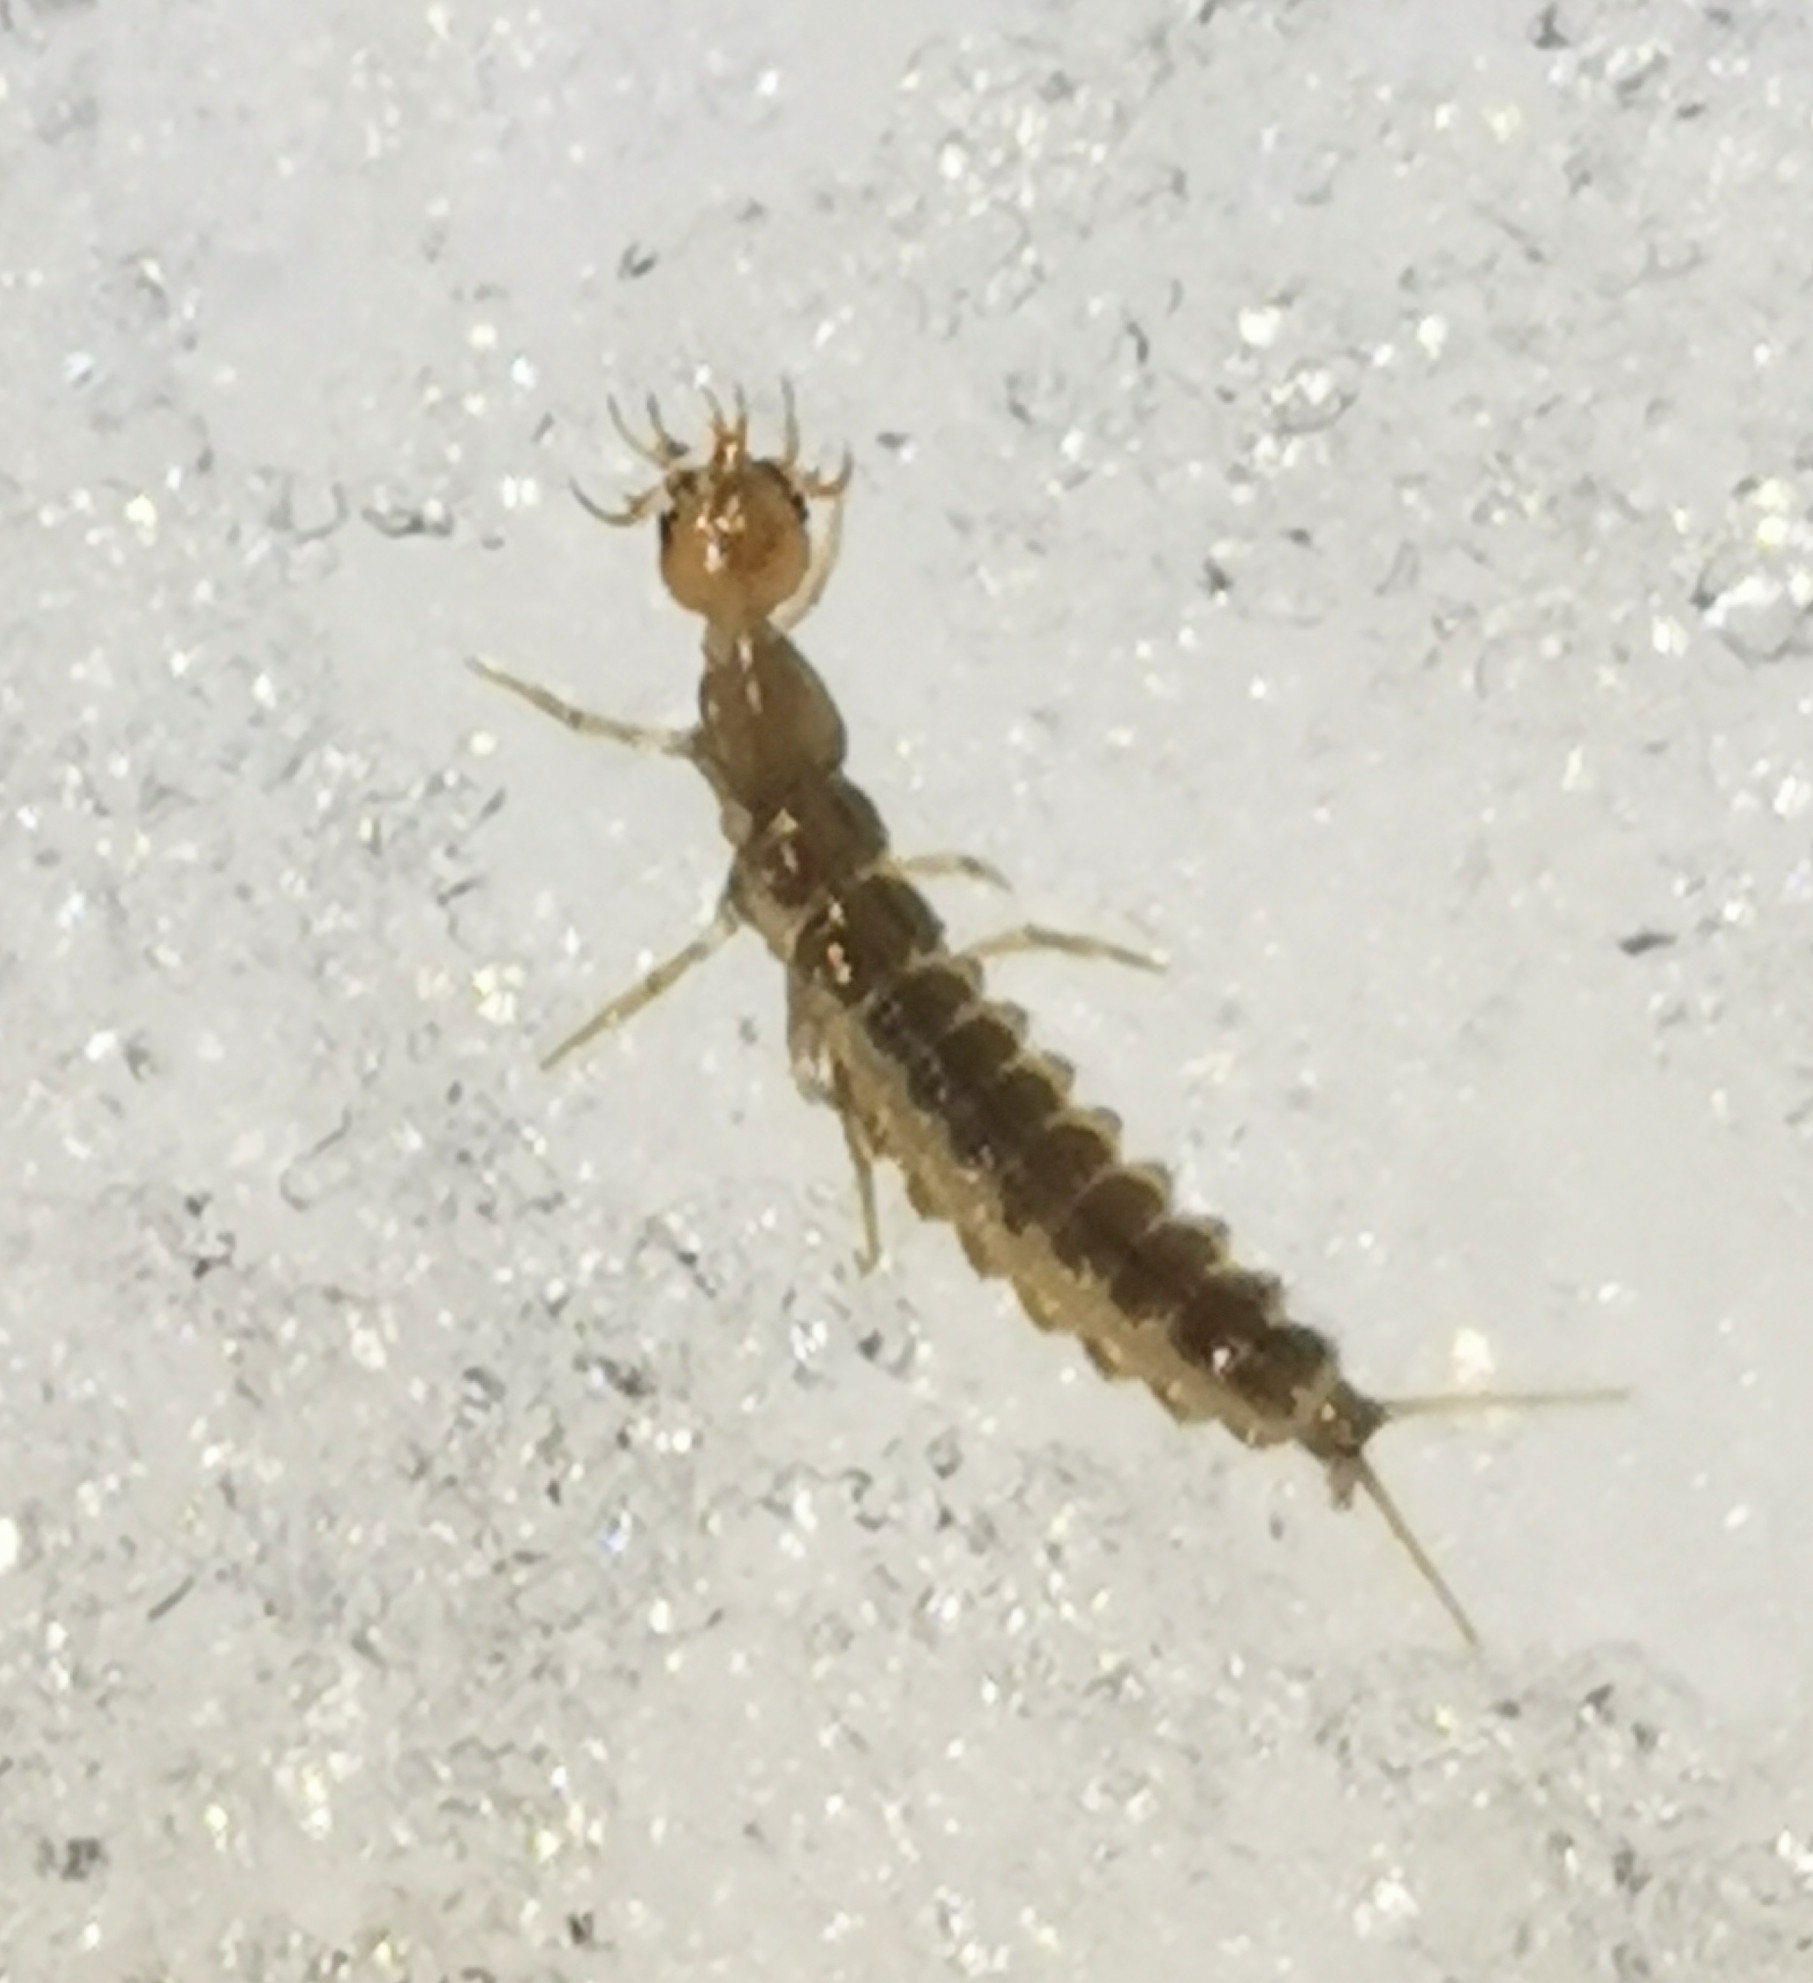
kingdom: Animalia
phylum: Arthropoda
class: Insecta
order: Coleoptera
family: Carabidae
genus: Leistus
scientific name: Leistus
